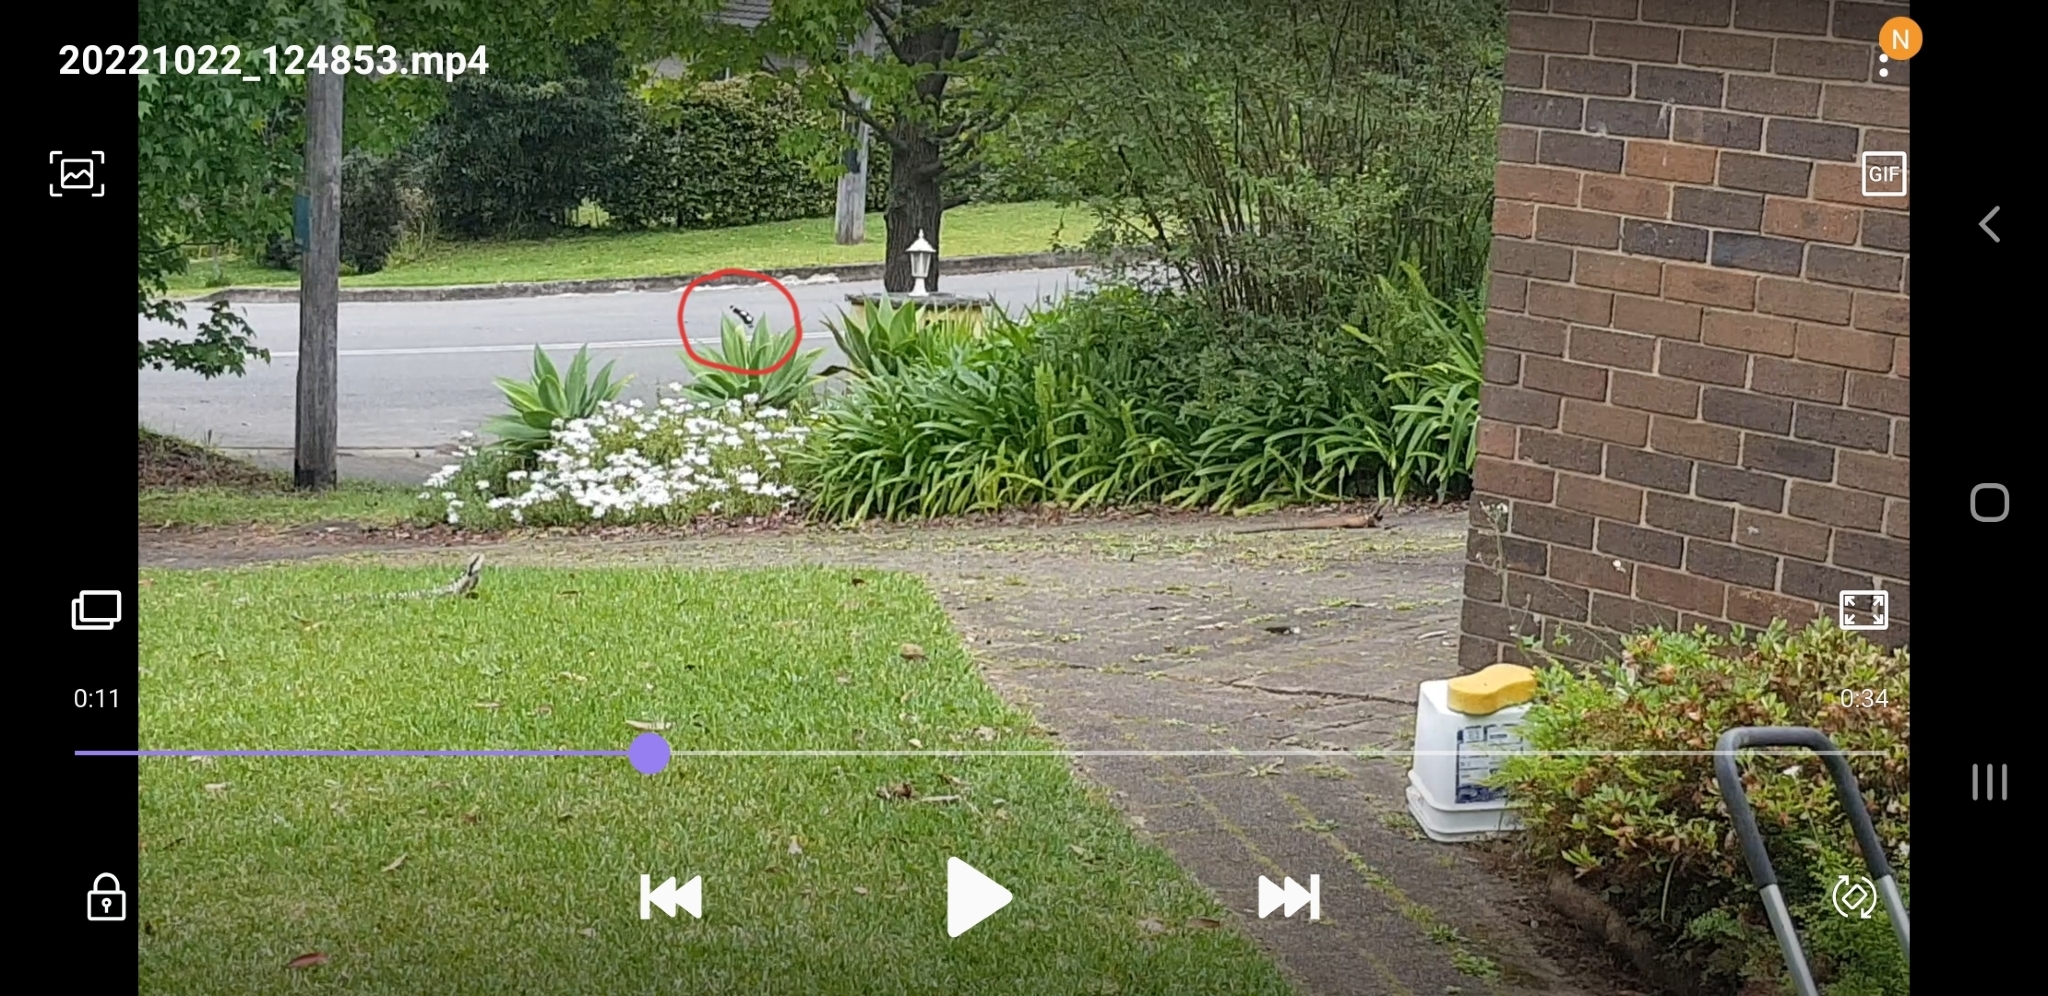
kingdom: Animalia
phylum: Arthropoda
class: Insecta
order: Lepidoptera
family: Papilionidae
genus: Papilio
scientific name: Papilio aegeus
